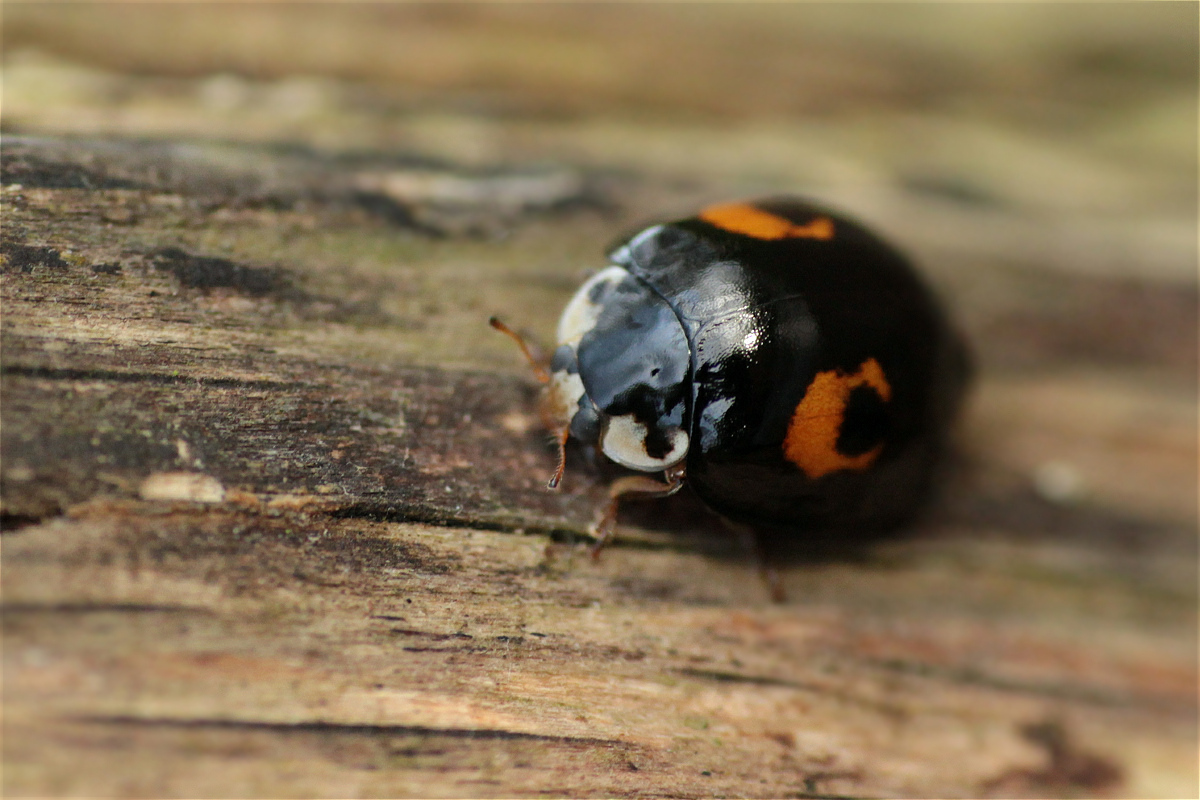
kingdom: Animalia
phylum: Arthropoda
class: Insecta
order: Coleoptera
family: Coccinellidae
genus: Harmonia
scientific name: Harmonia axyridis
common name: Harlequin ladybird
